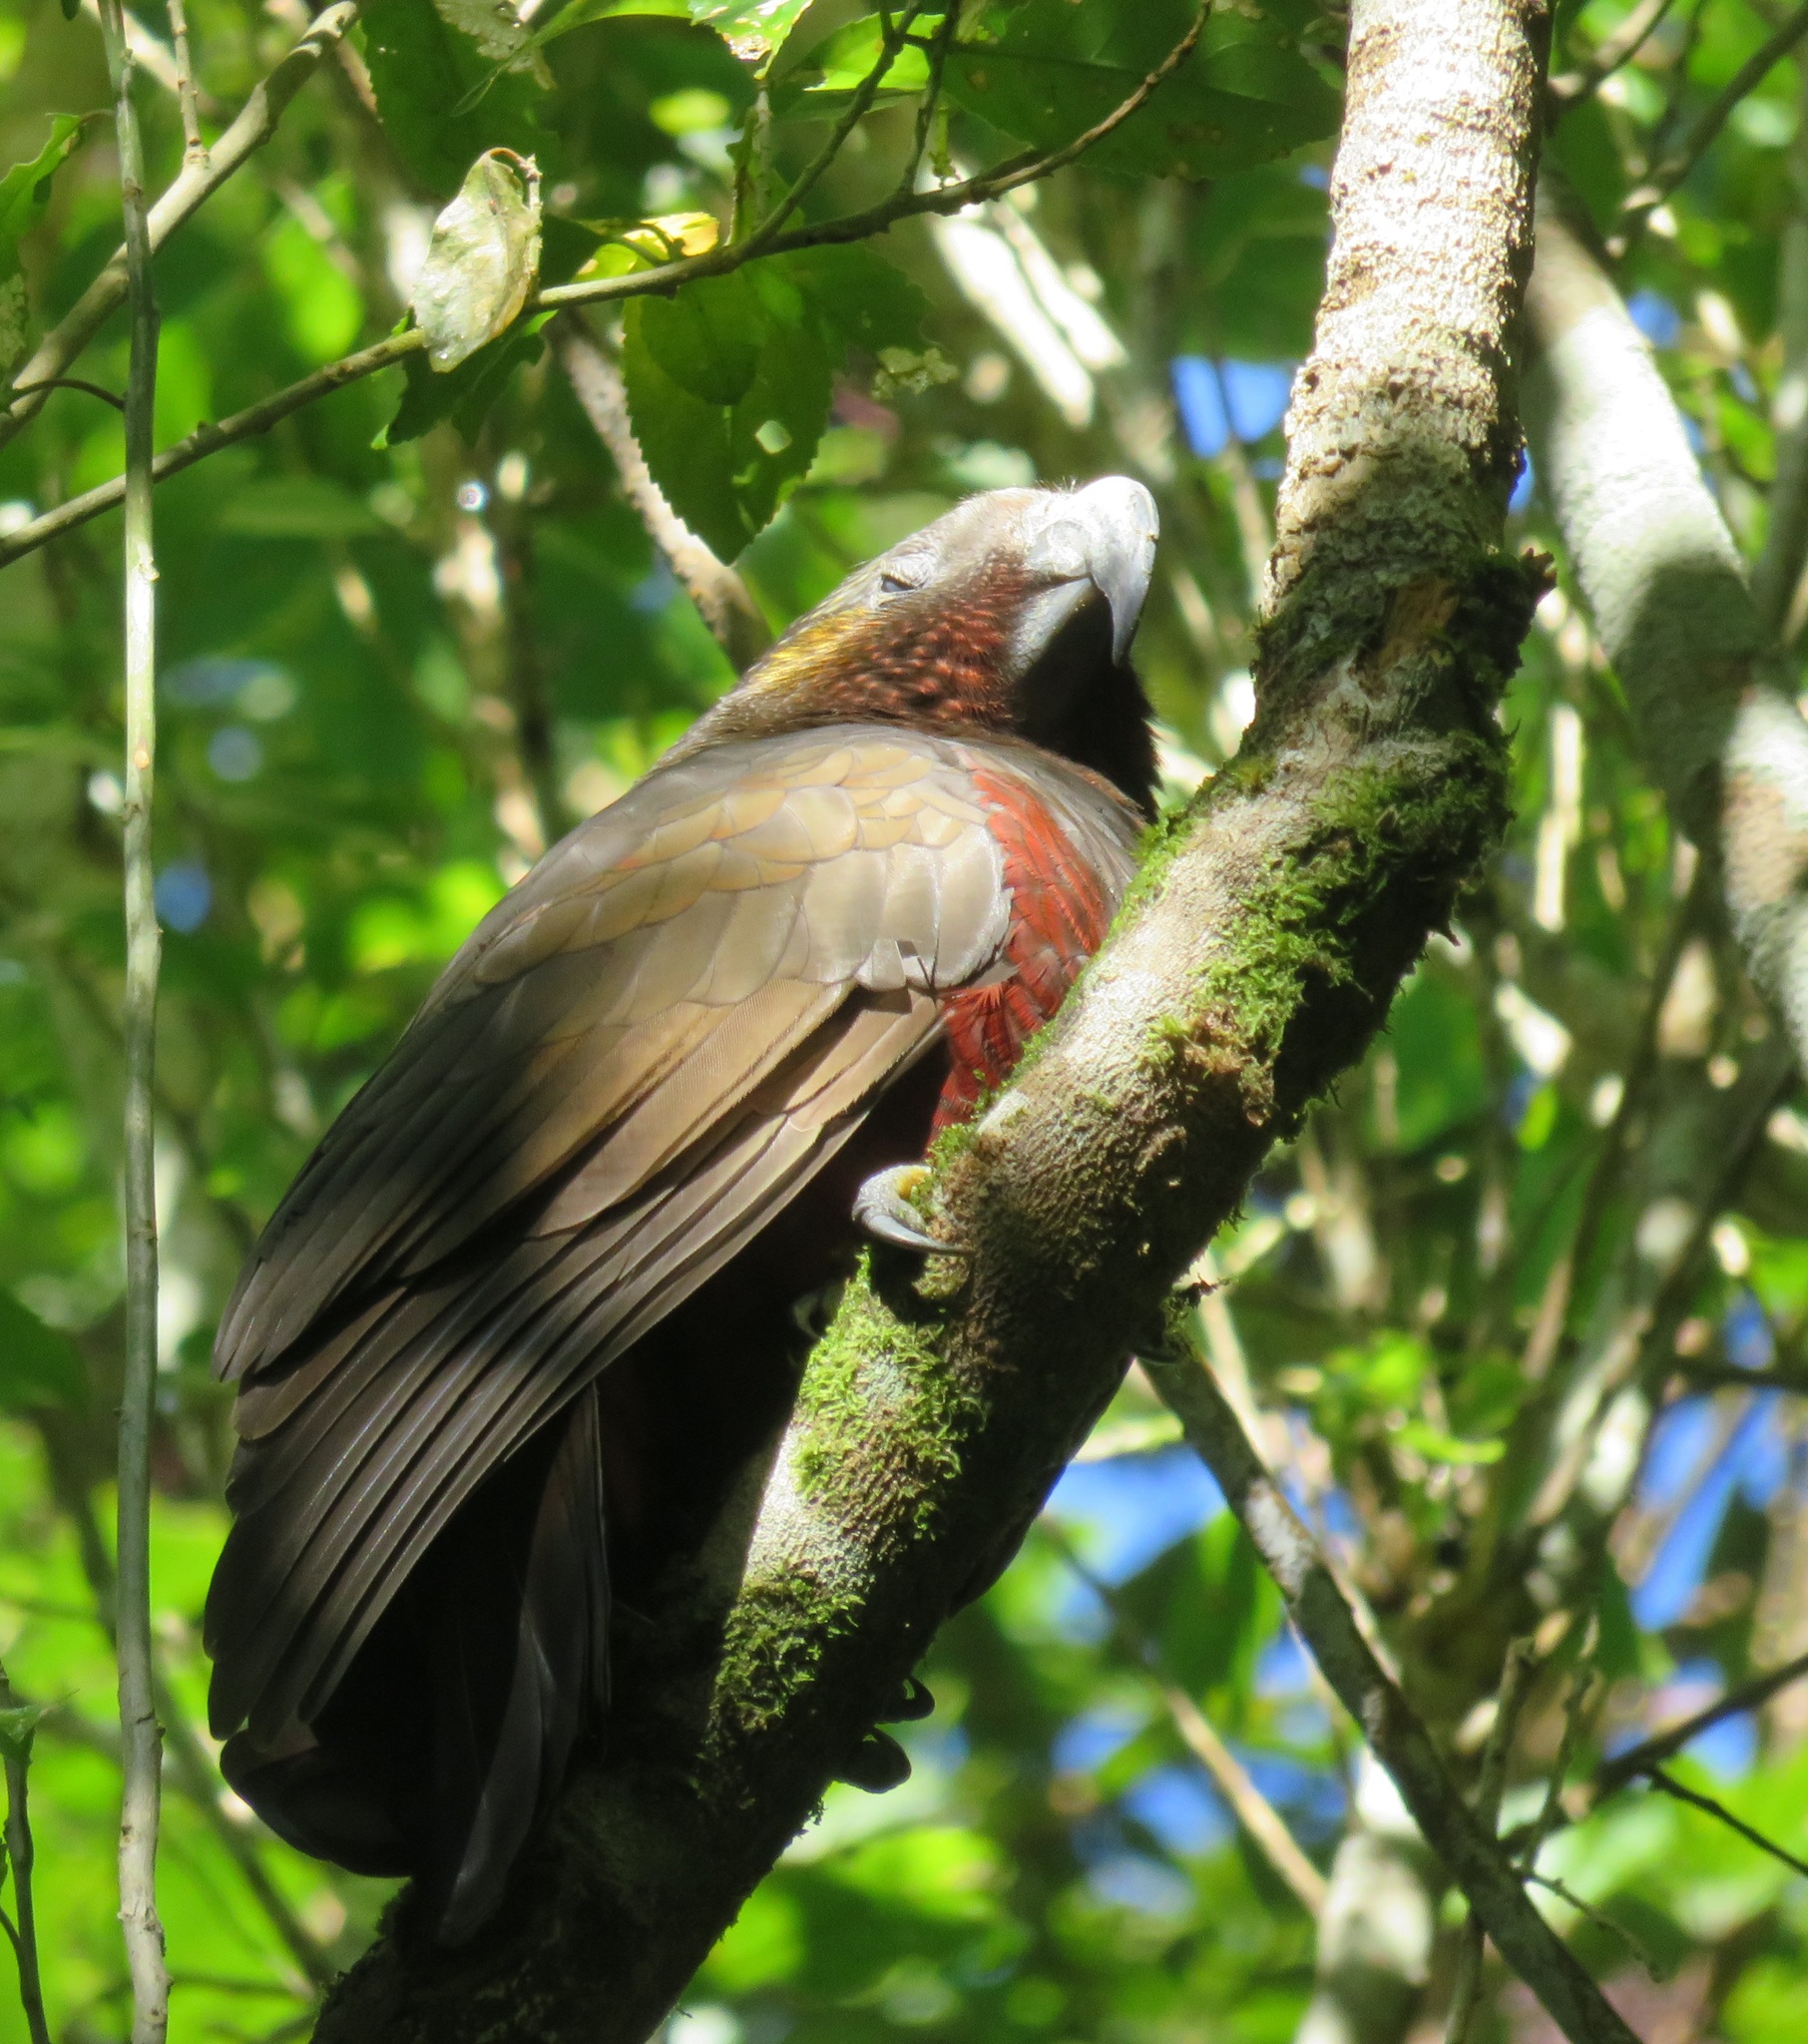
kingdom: Animalia
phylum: Chordata
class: Aves
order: Psittaciformes
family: Psittacidae
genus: Nestor
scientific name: Nestor meridionalis
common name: New zealand kaka
